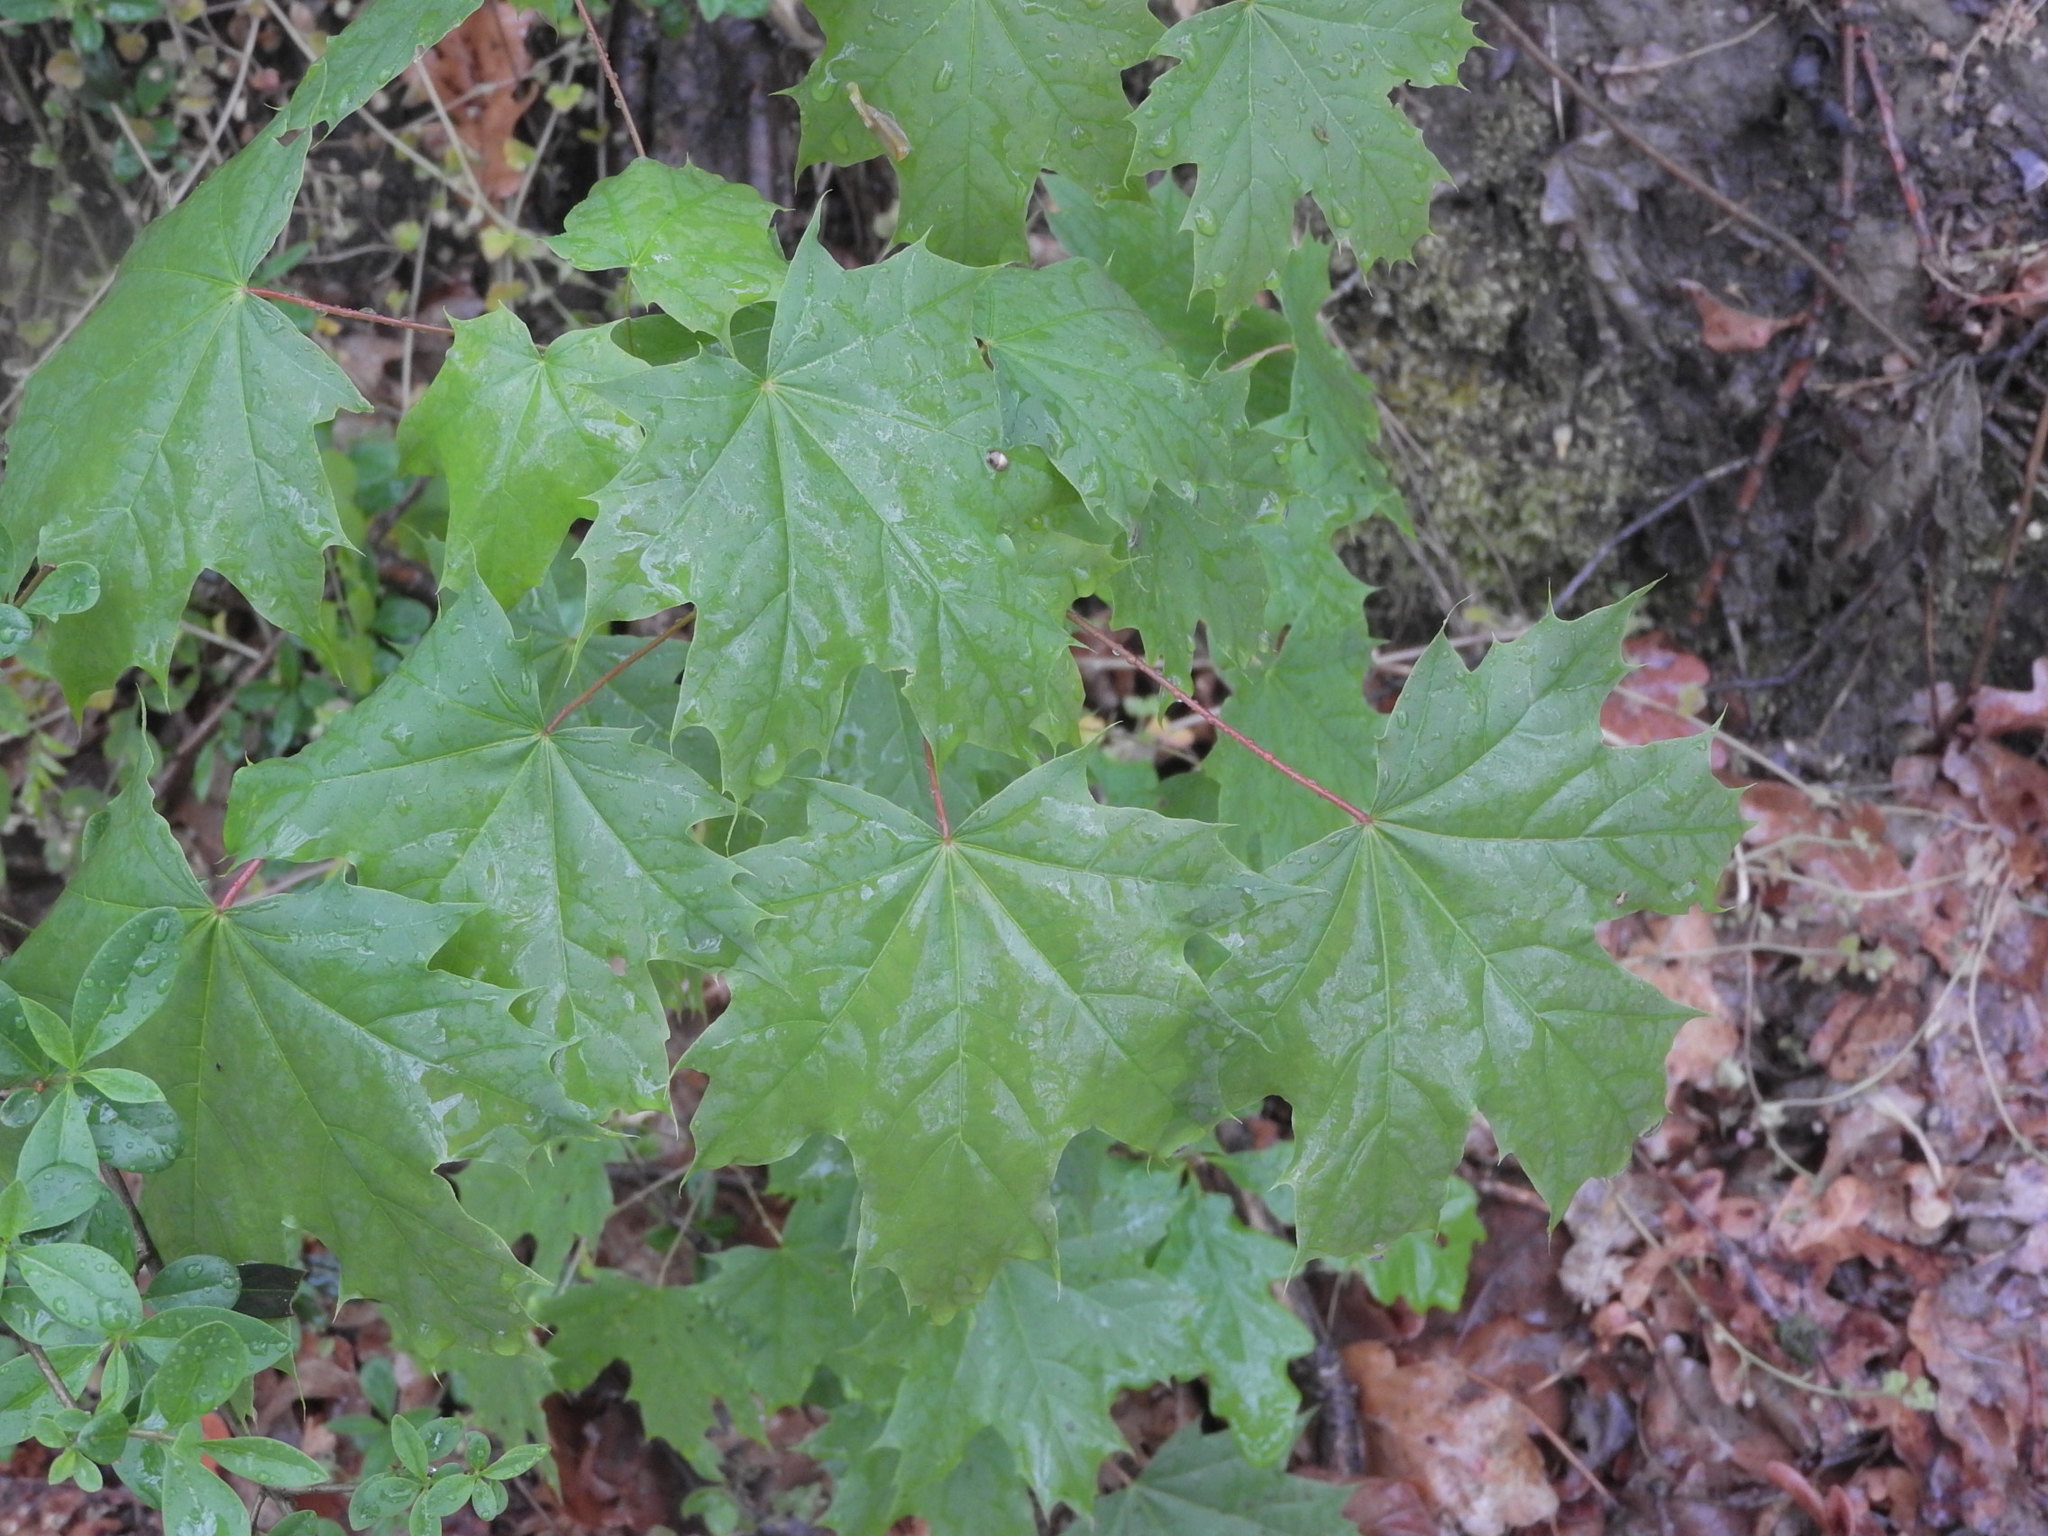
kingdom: Plantae
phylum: Tracheophyta
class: Magnoliopsida
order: Sapindales
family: Sapindaceae
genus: Acer
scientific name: Acer platanoides
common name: Norway maple
